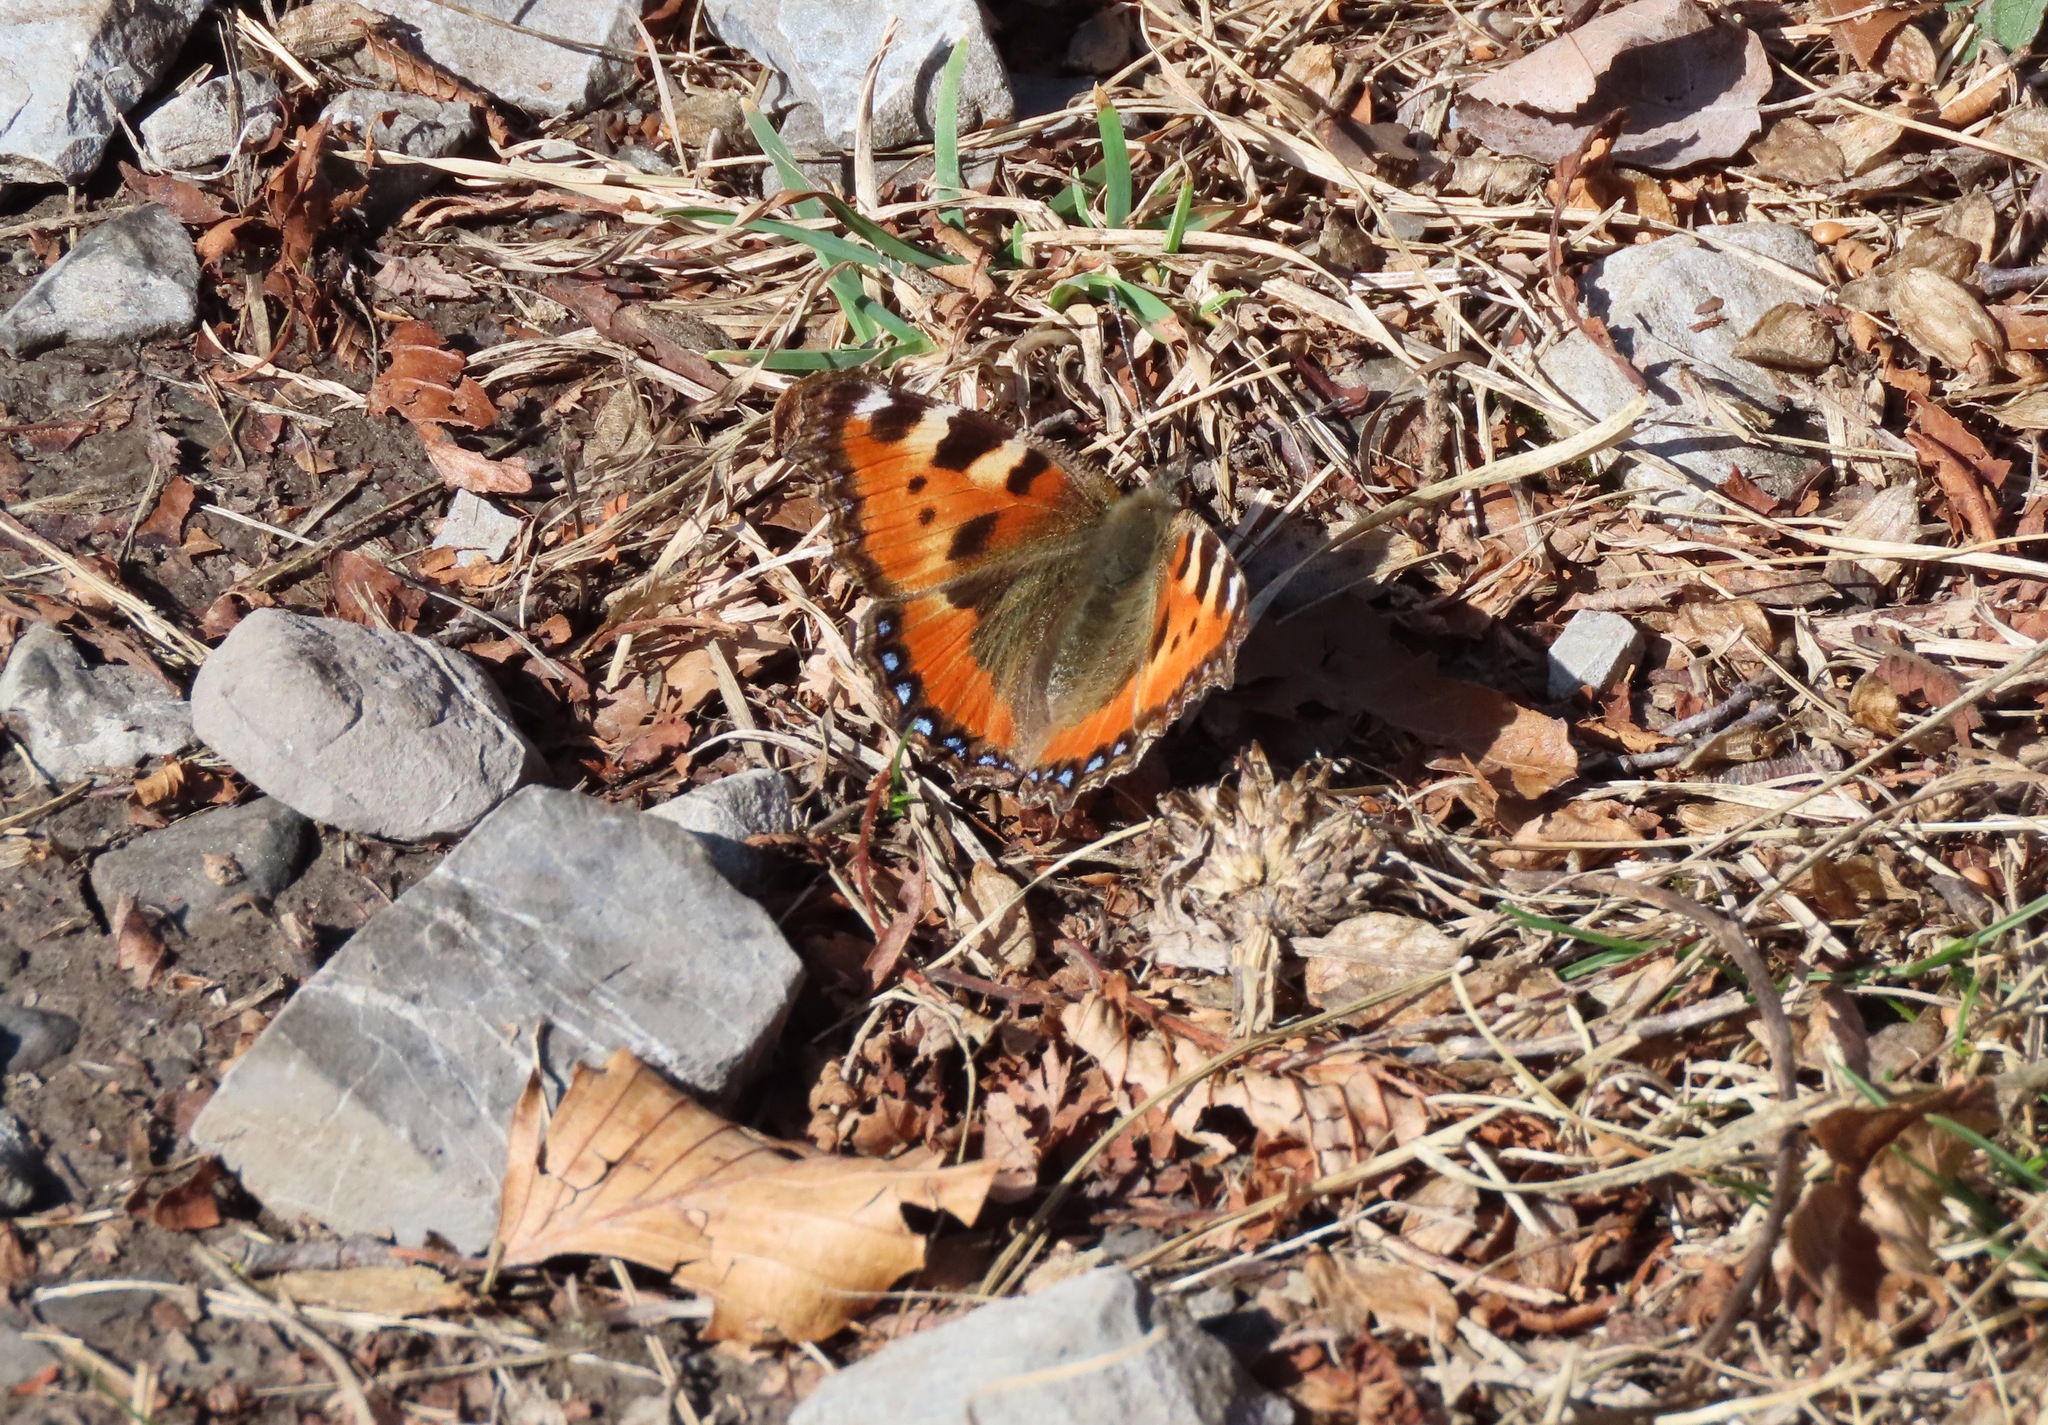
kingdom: Animalia
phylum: Arthropoda
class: Insecta
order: Lepidoptera
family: Nymphalidae
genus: Aglais
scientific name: Aglais urticae
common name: Small tortoiseshell
